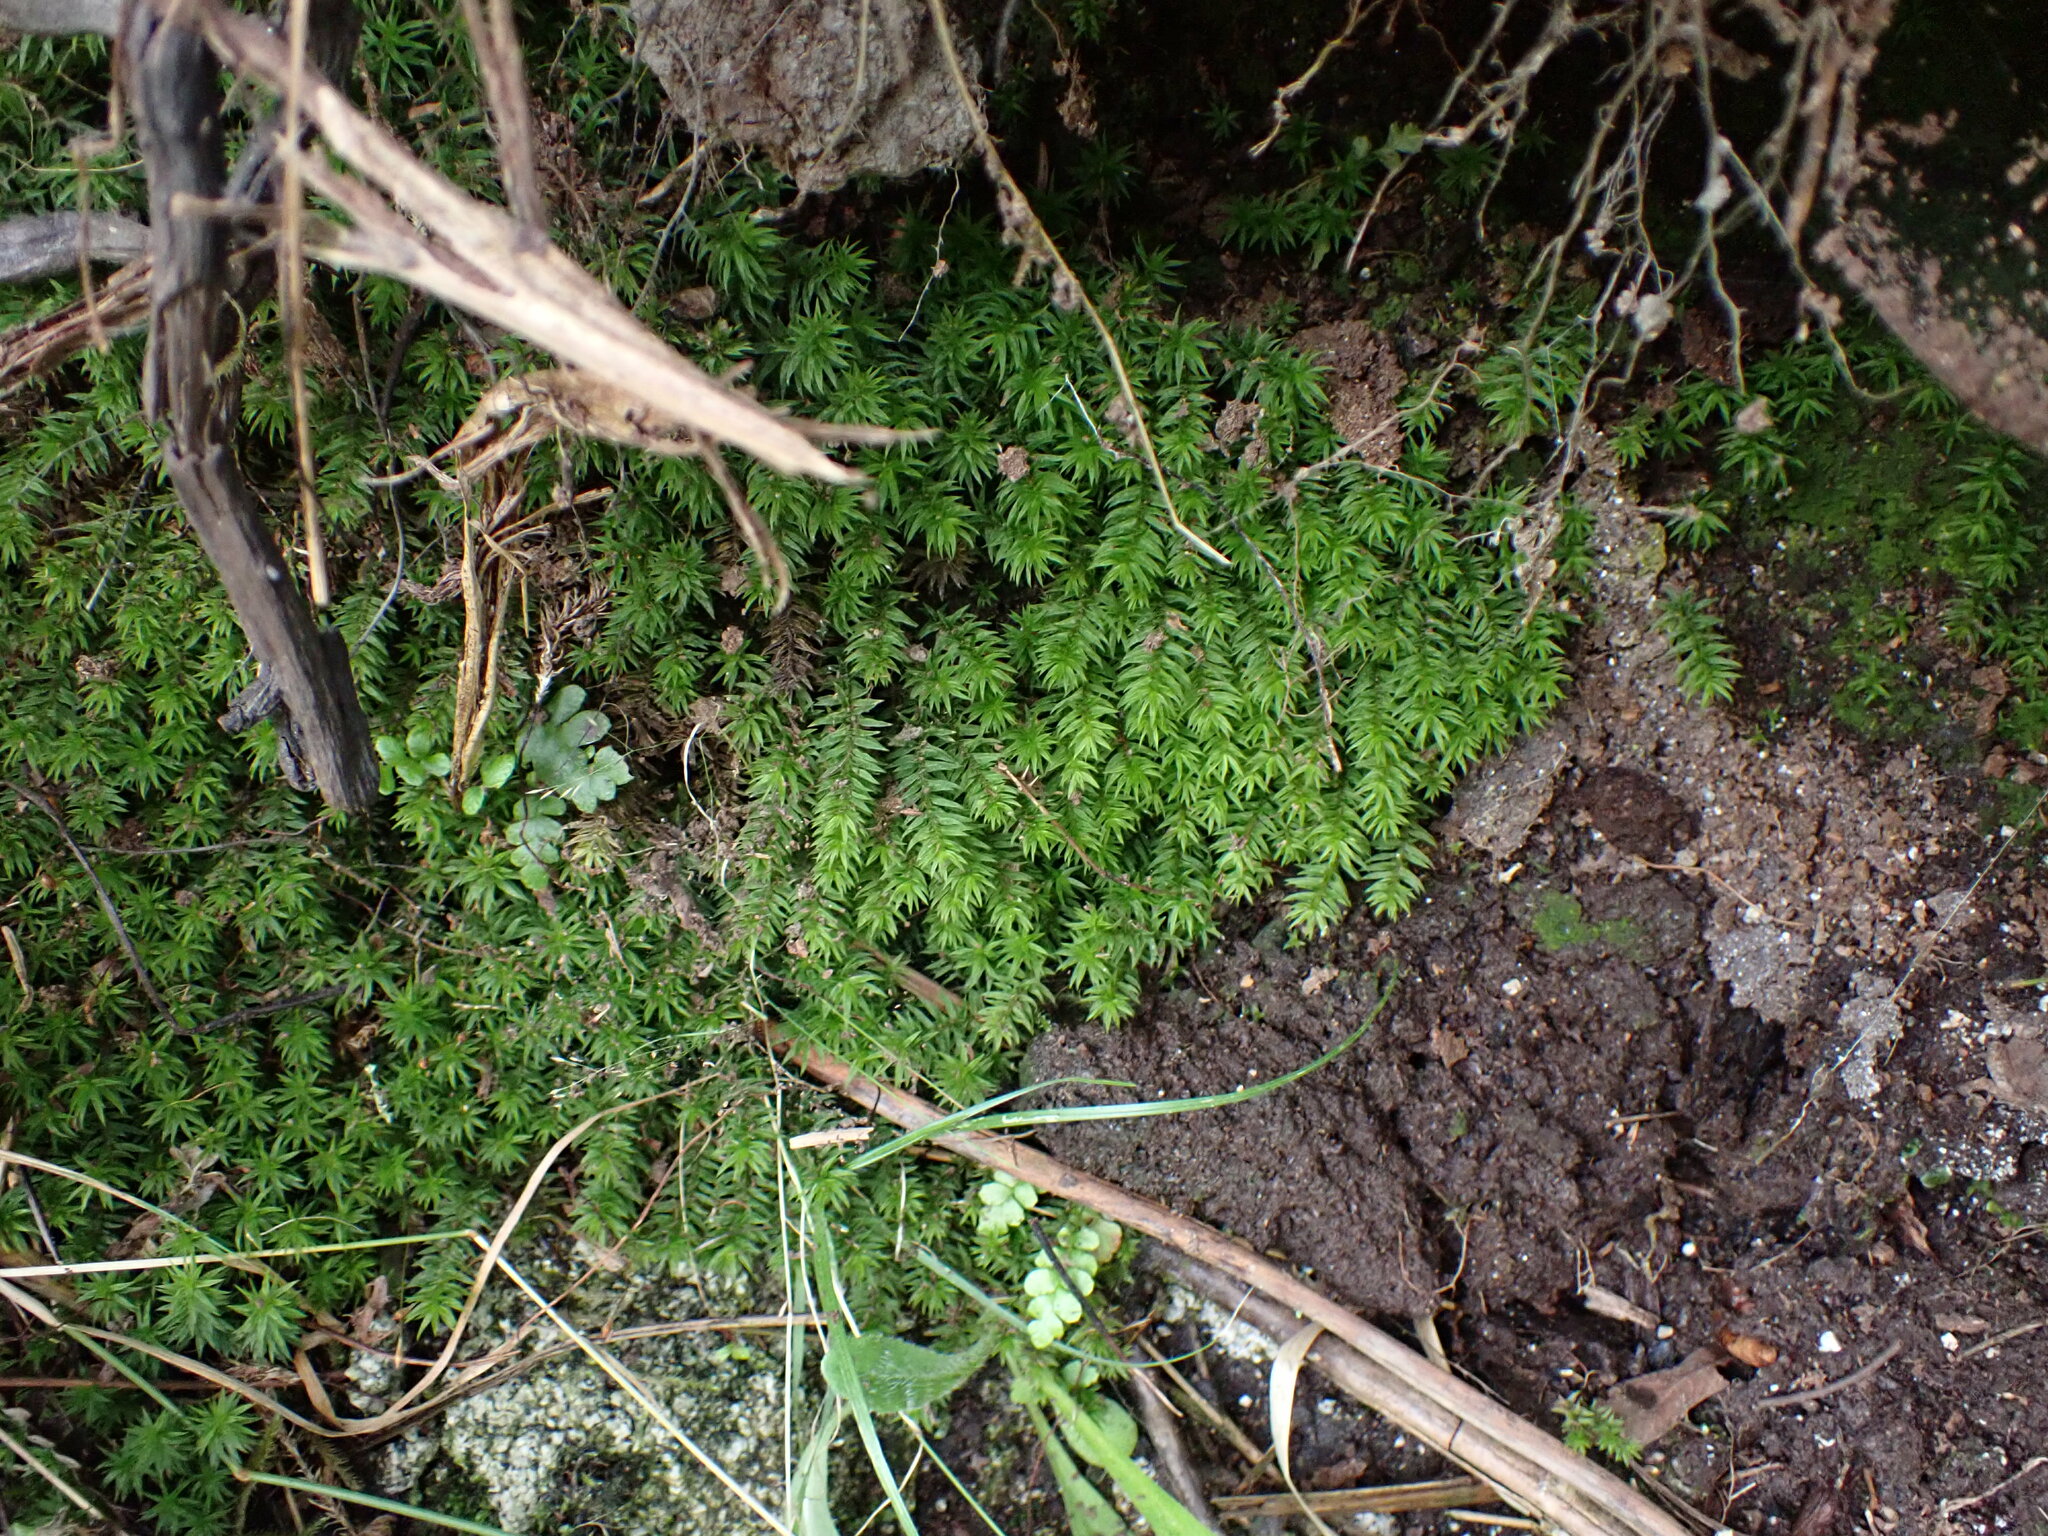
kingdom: Plantae
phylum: Bryophyta
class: Polytrichopsida
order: Polytrichales
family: Polytrichaceae
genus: Pogonatum
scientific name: Pogonatum contortum
